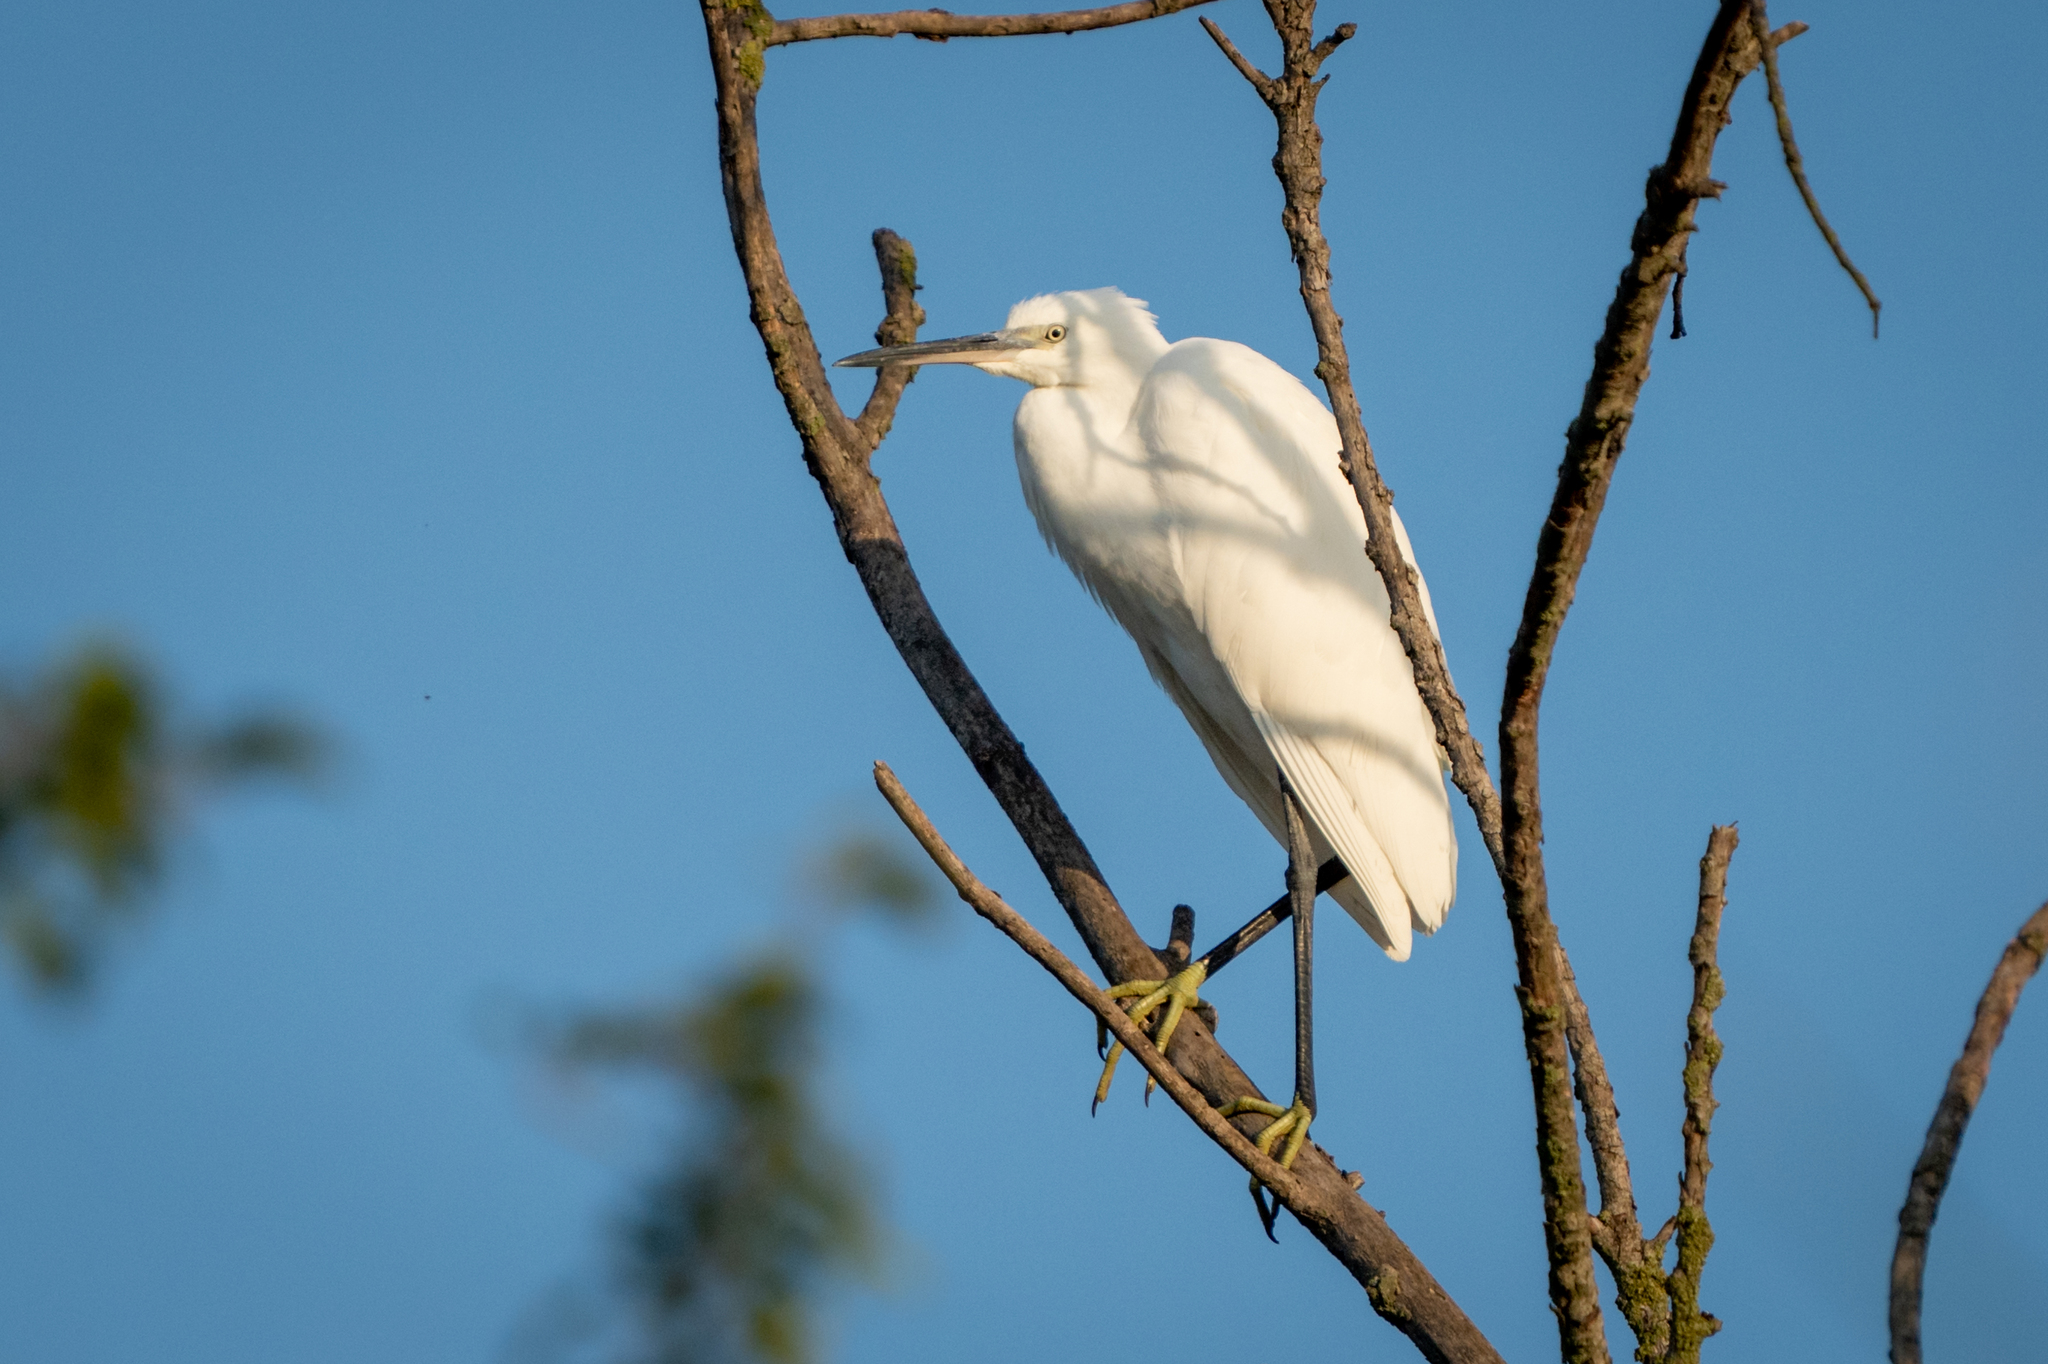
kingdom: Animalia
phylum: Chordata
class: Aves
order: Pelecaniformes
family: Ardeidae
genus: Egretta
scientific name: Egretta garzetta
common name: Little egret
